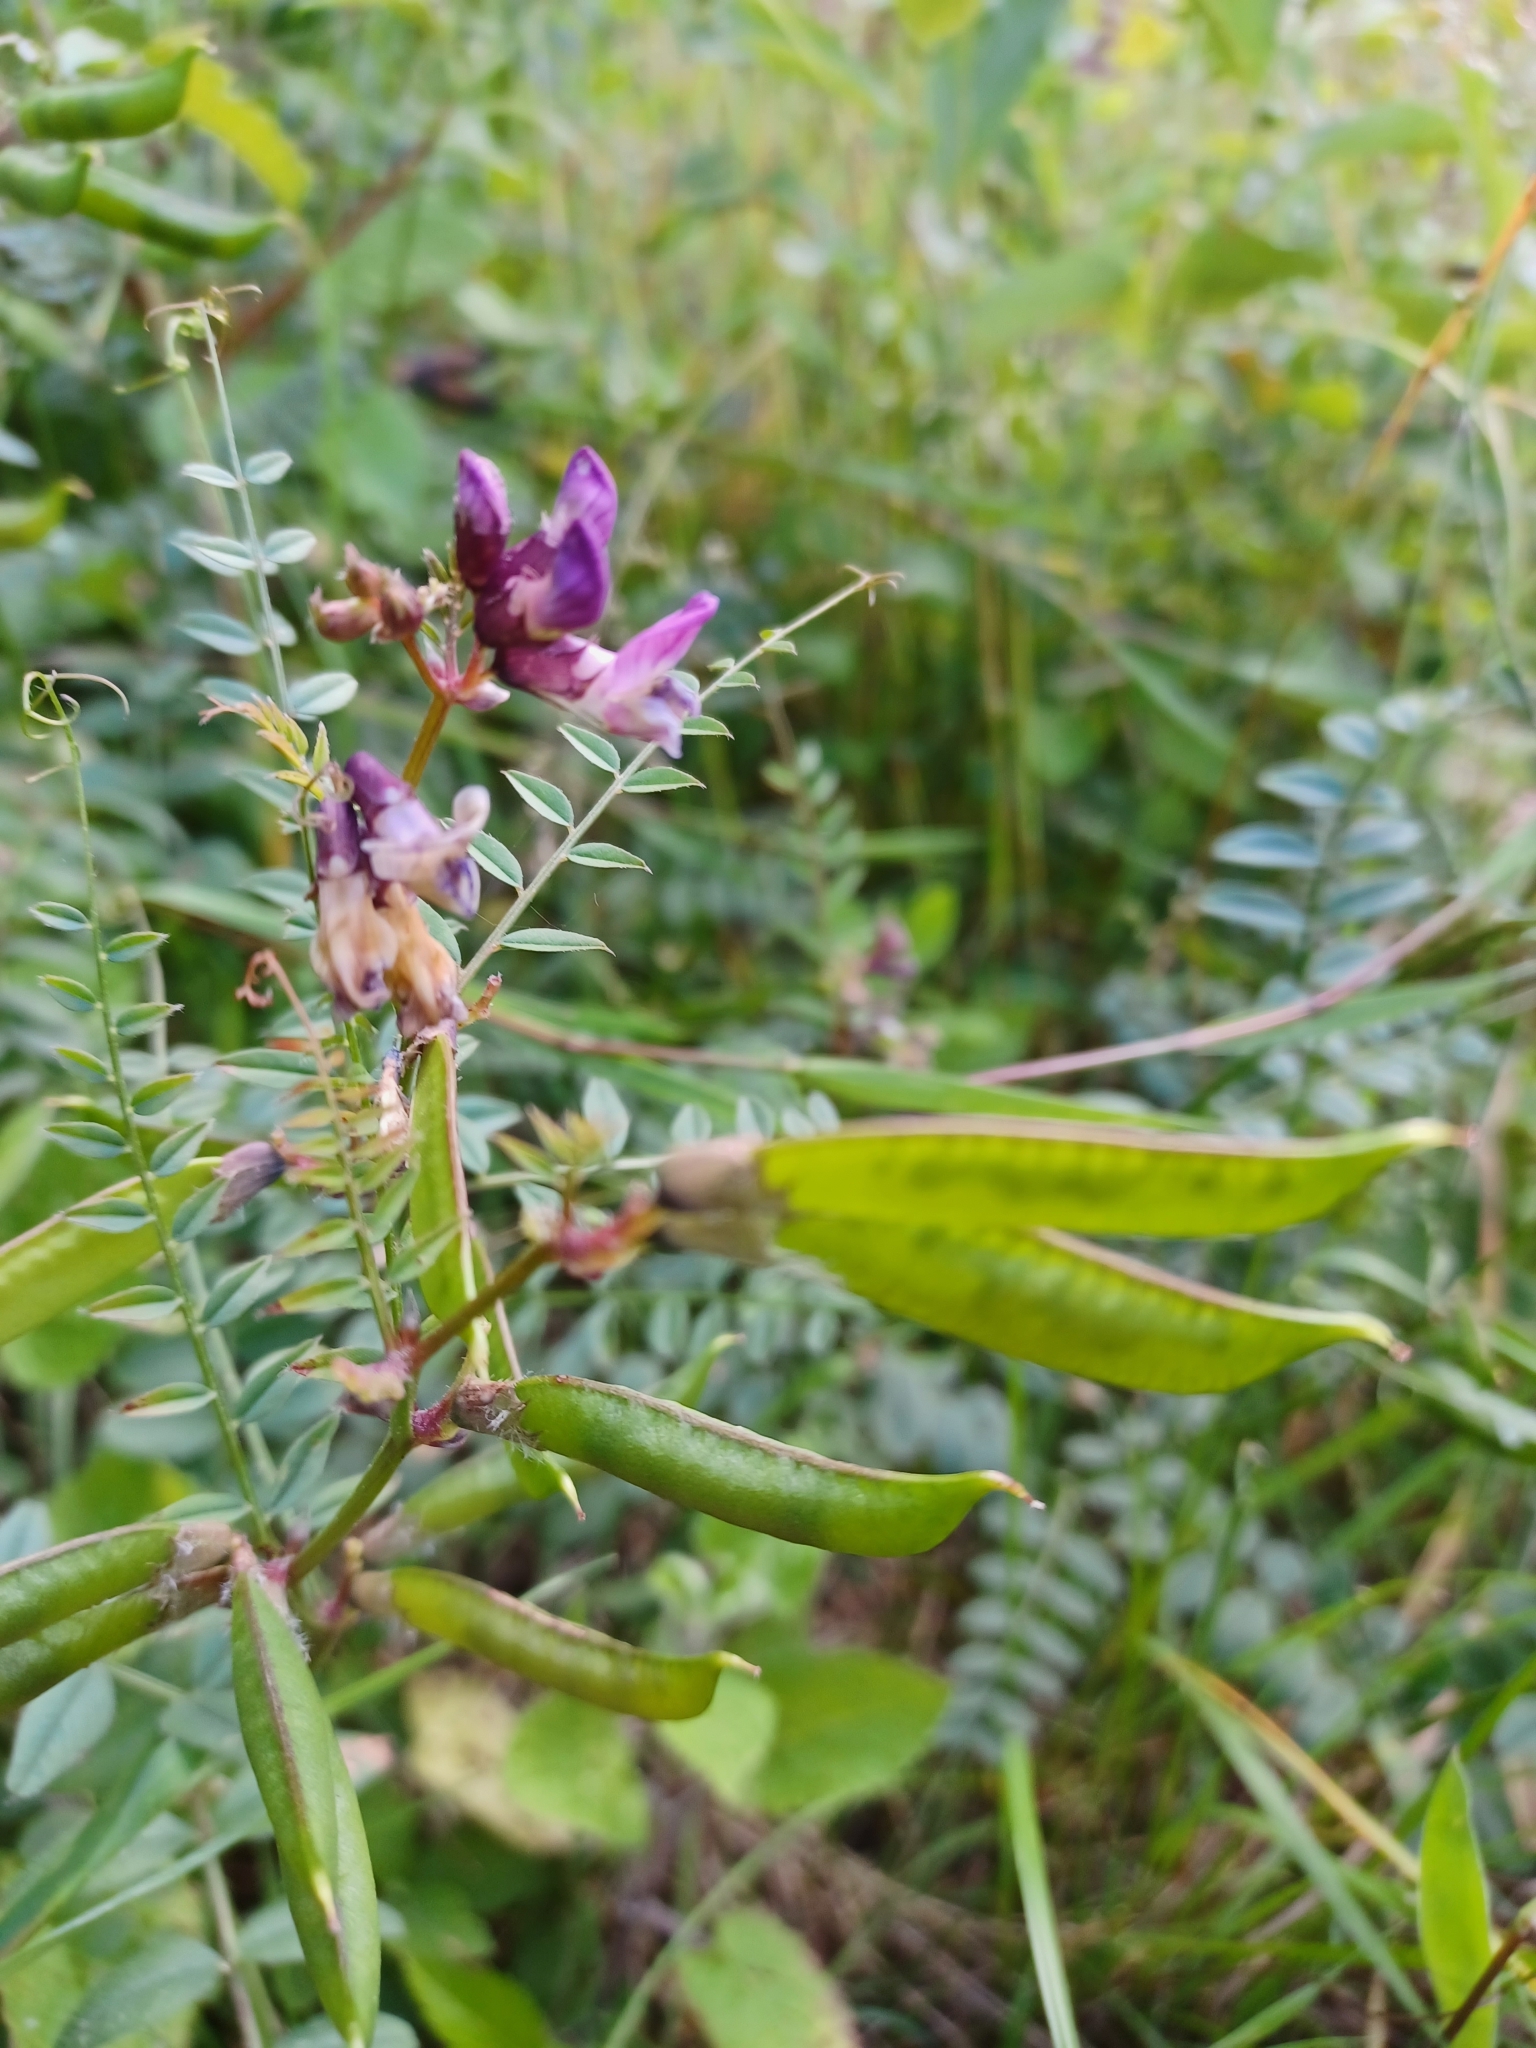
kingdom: Plantae
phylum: Tracheophyta
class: Magnoliopsida
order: Fabales
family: Fabaceae
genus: Vicia
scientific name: Vicia sepium
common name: Bush vetch
